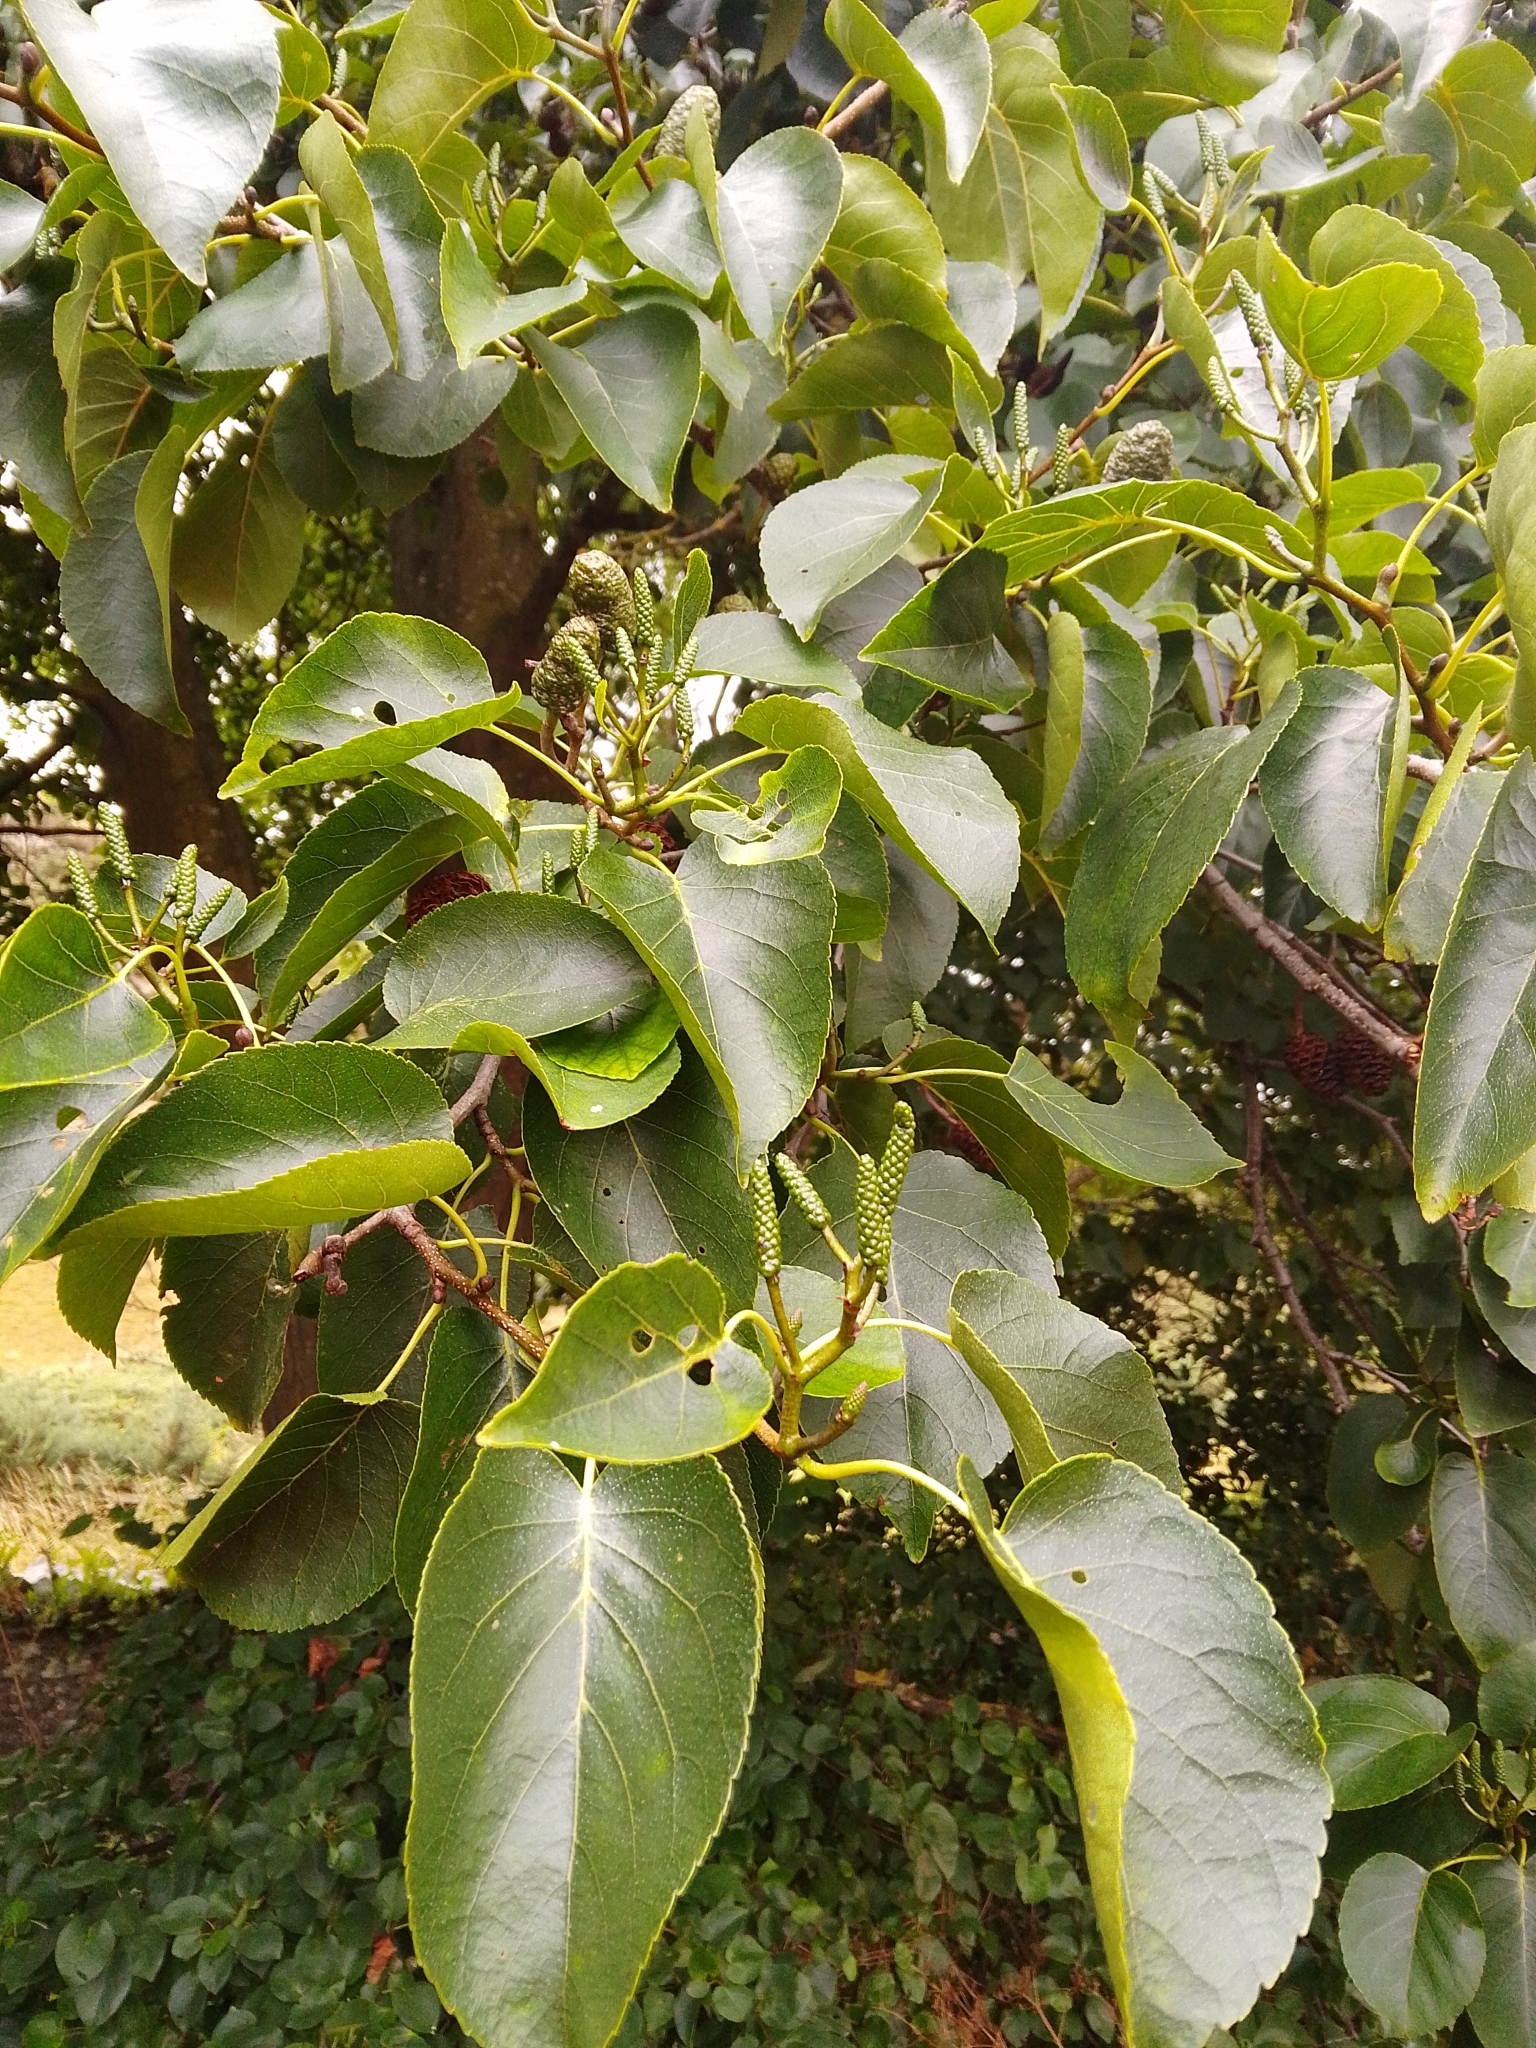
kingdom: Plantae
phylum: Tracheophyta
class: Magnoliopsida
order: Fagales
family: Betulaceae
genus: Alnus
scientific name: Alnus cordata
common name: Italian alder
